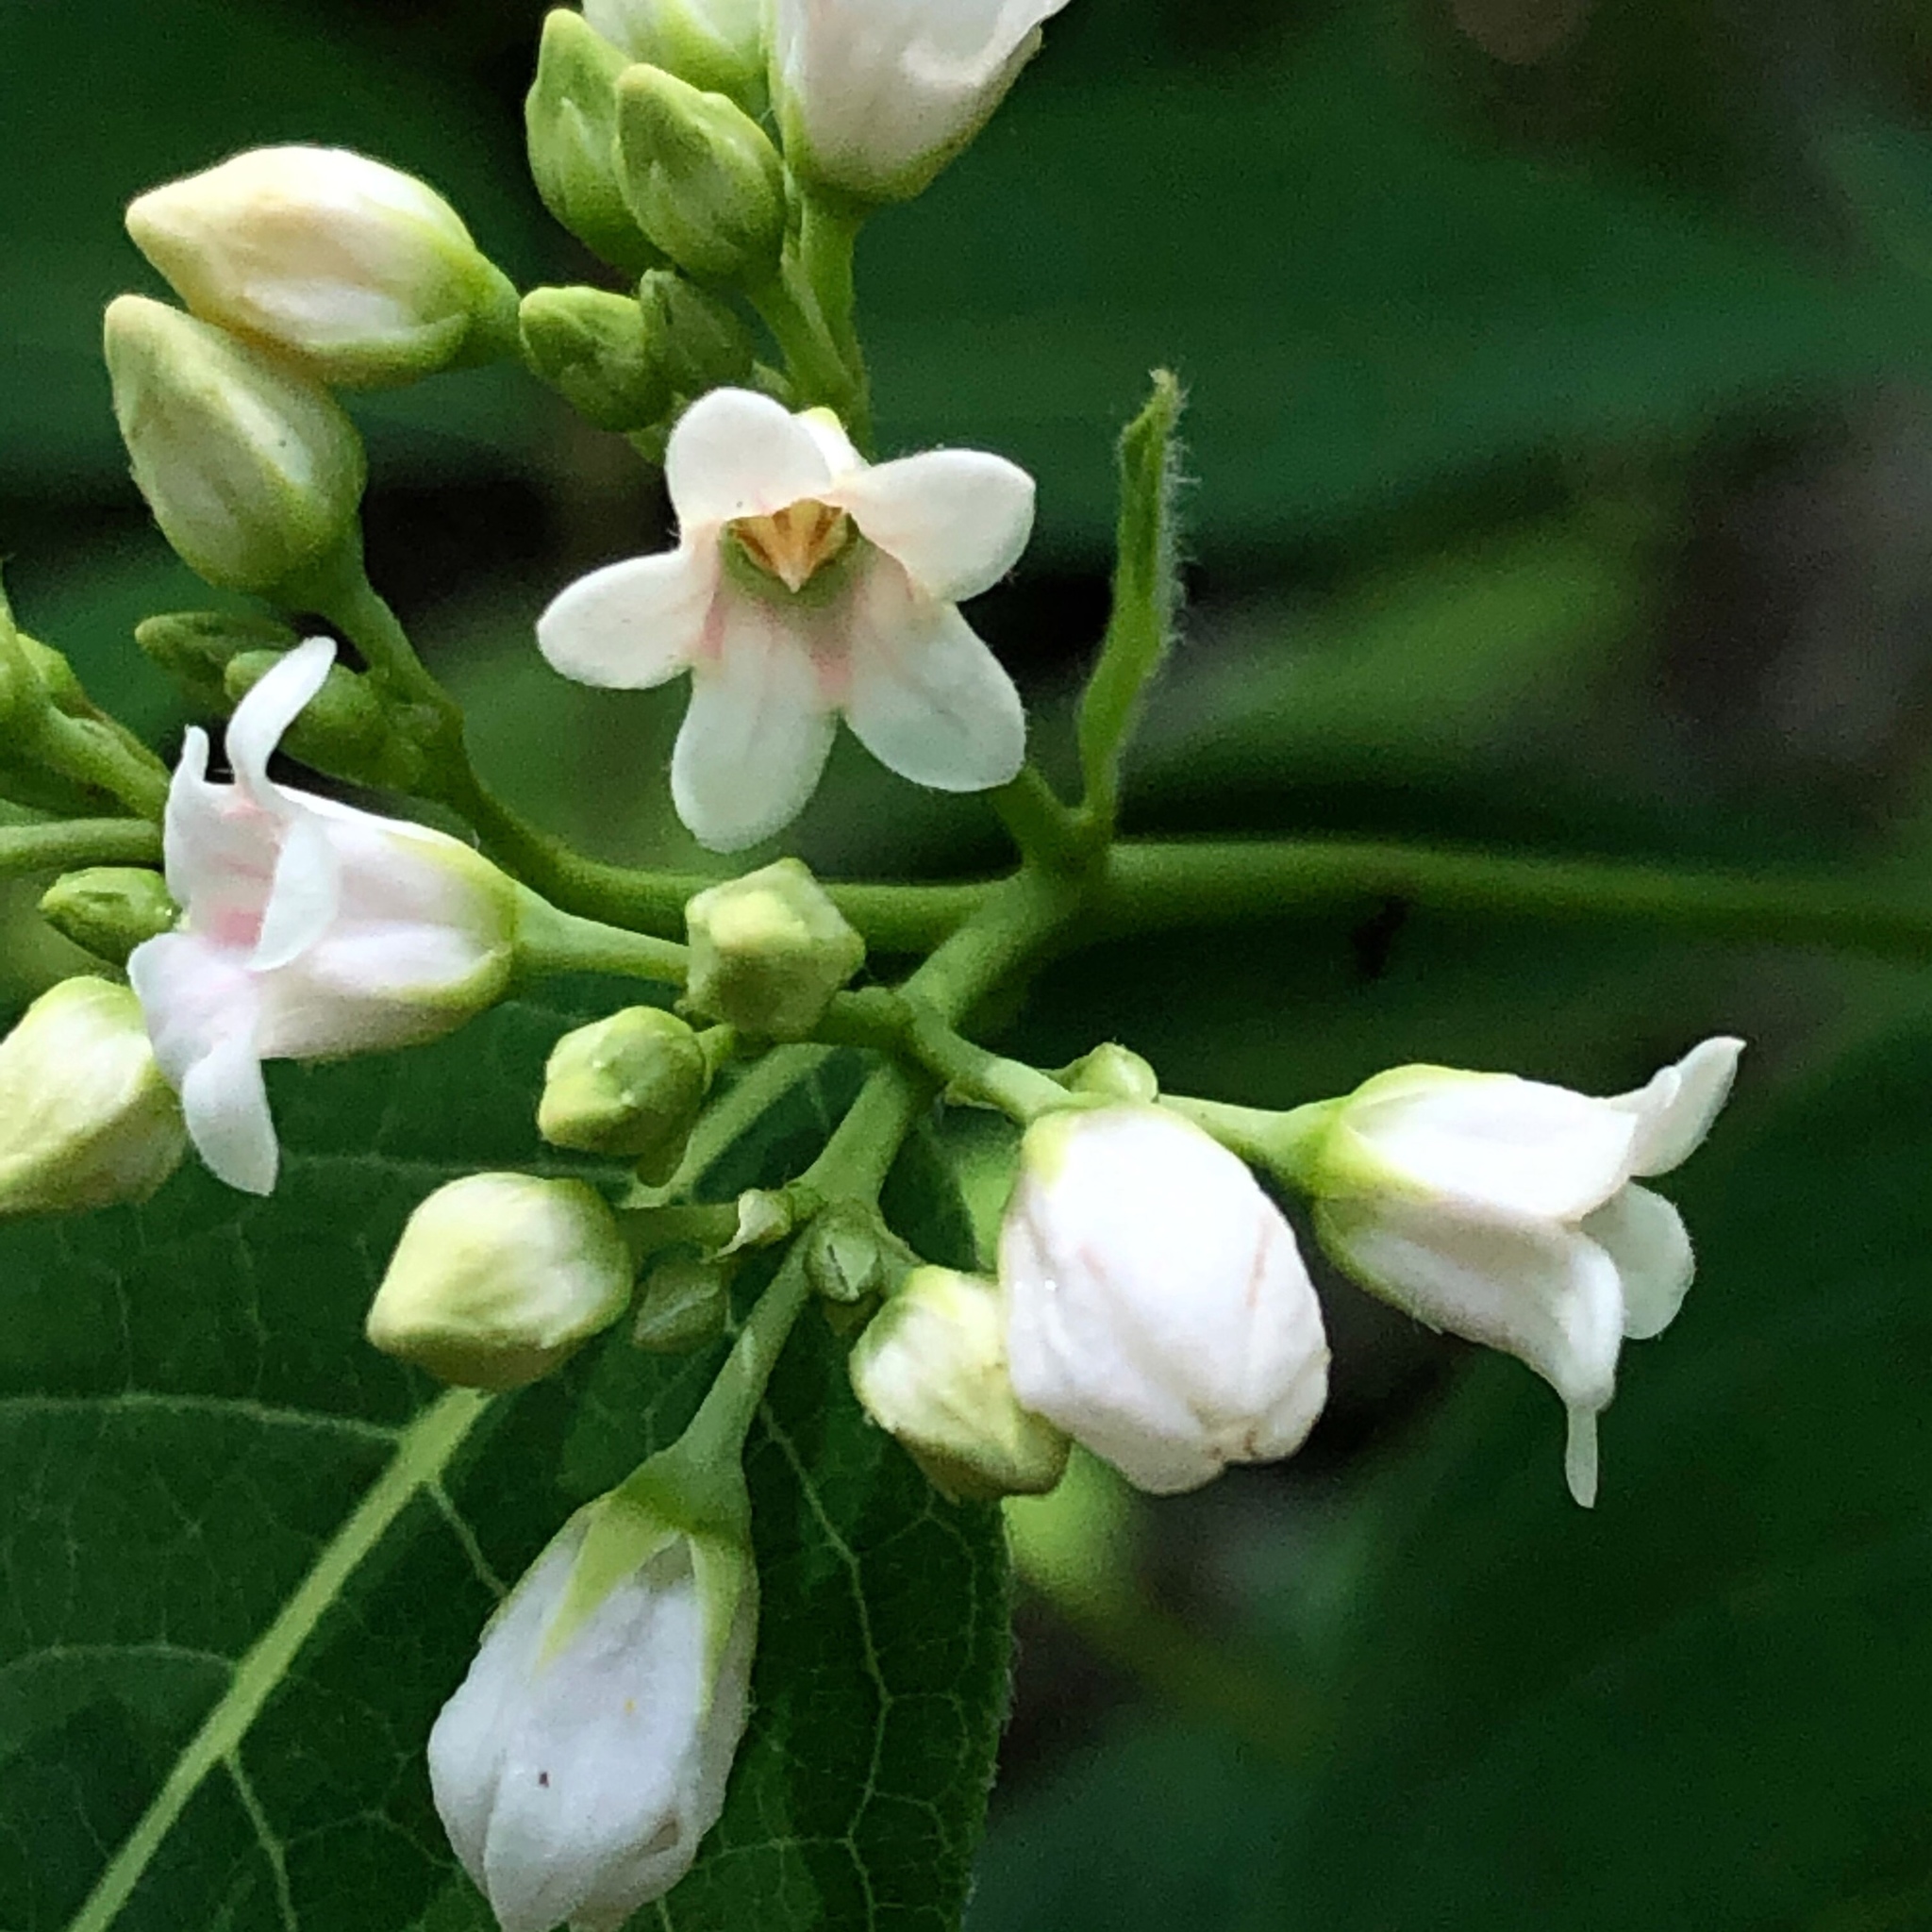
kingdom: Plantae
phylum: Tracheophyta
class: Magnoliopsida
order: Gentianales
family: Apocynaceae
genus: Apocynum
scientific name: Apocynum androsaemifolium
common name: Spreading dogbane
